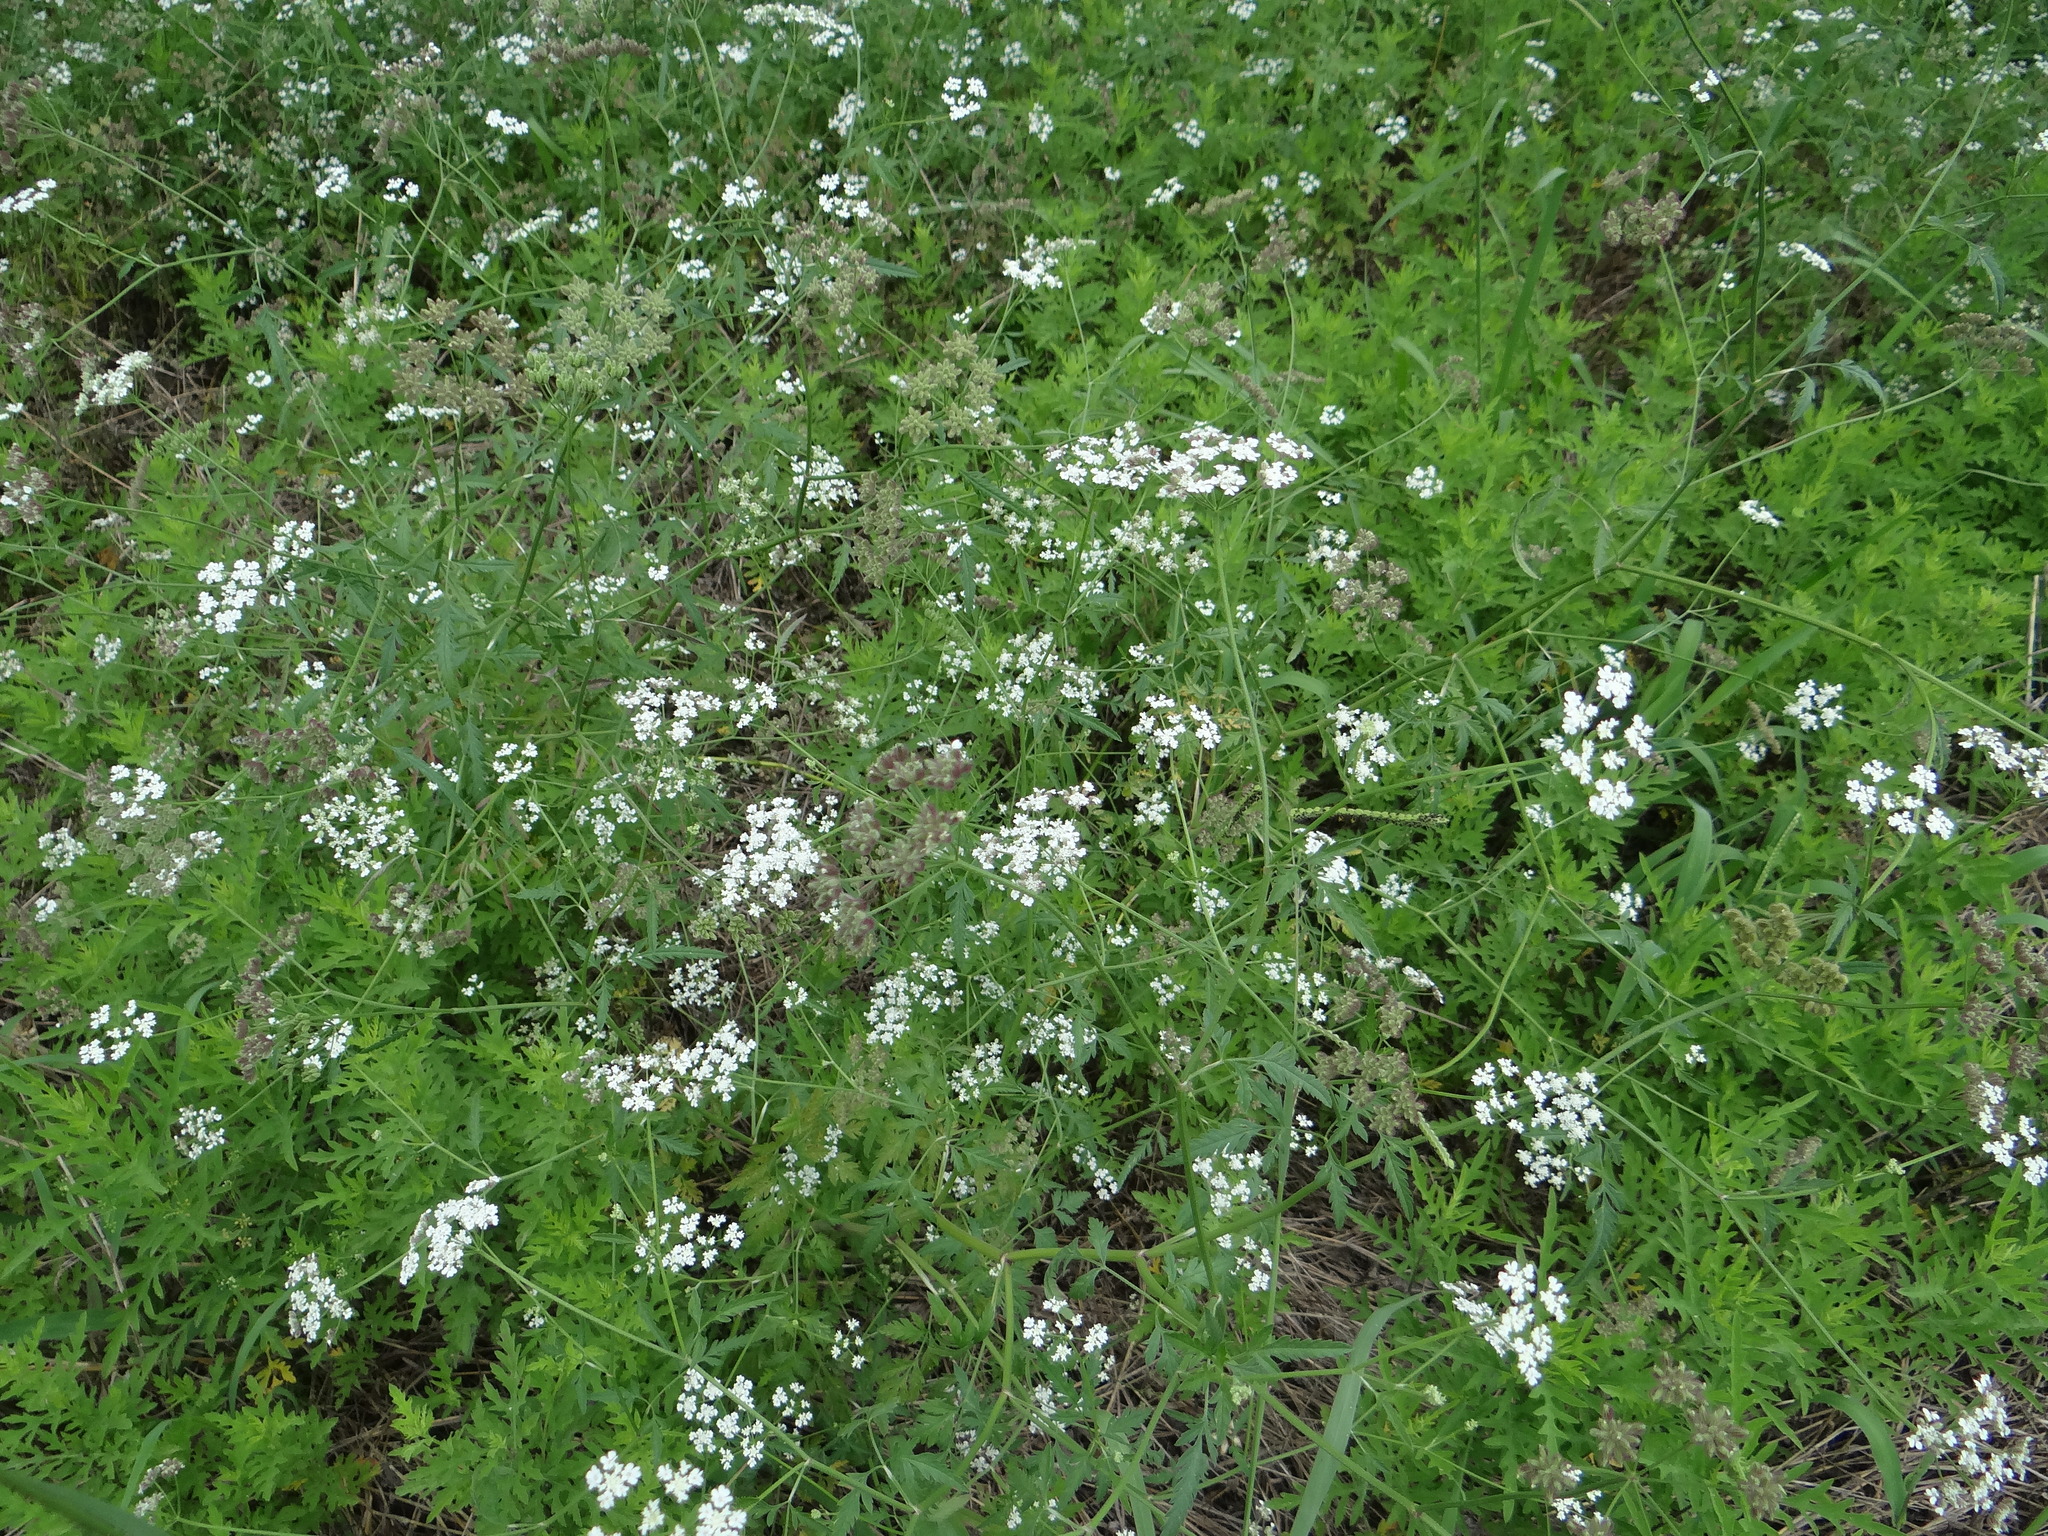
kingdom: Plantae
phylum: Tracheophyta
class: Magnoliopsida
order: Apiales
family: Apiaceae
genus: Torilis
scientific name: Torilis arvensis
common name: Spreading hedge-parsley
